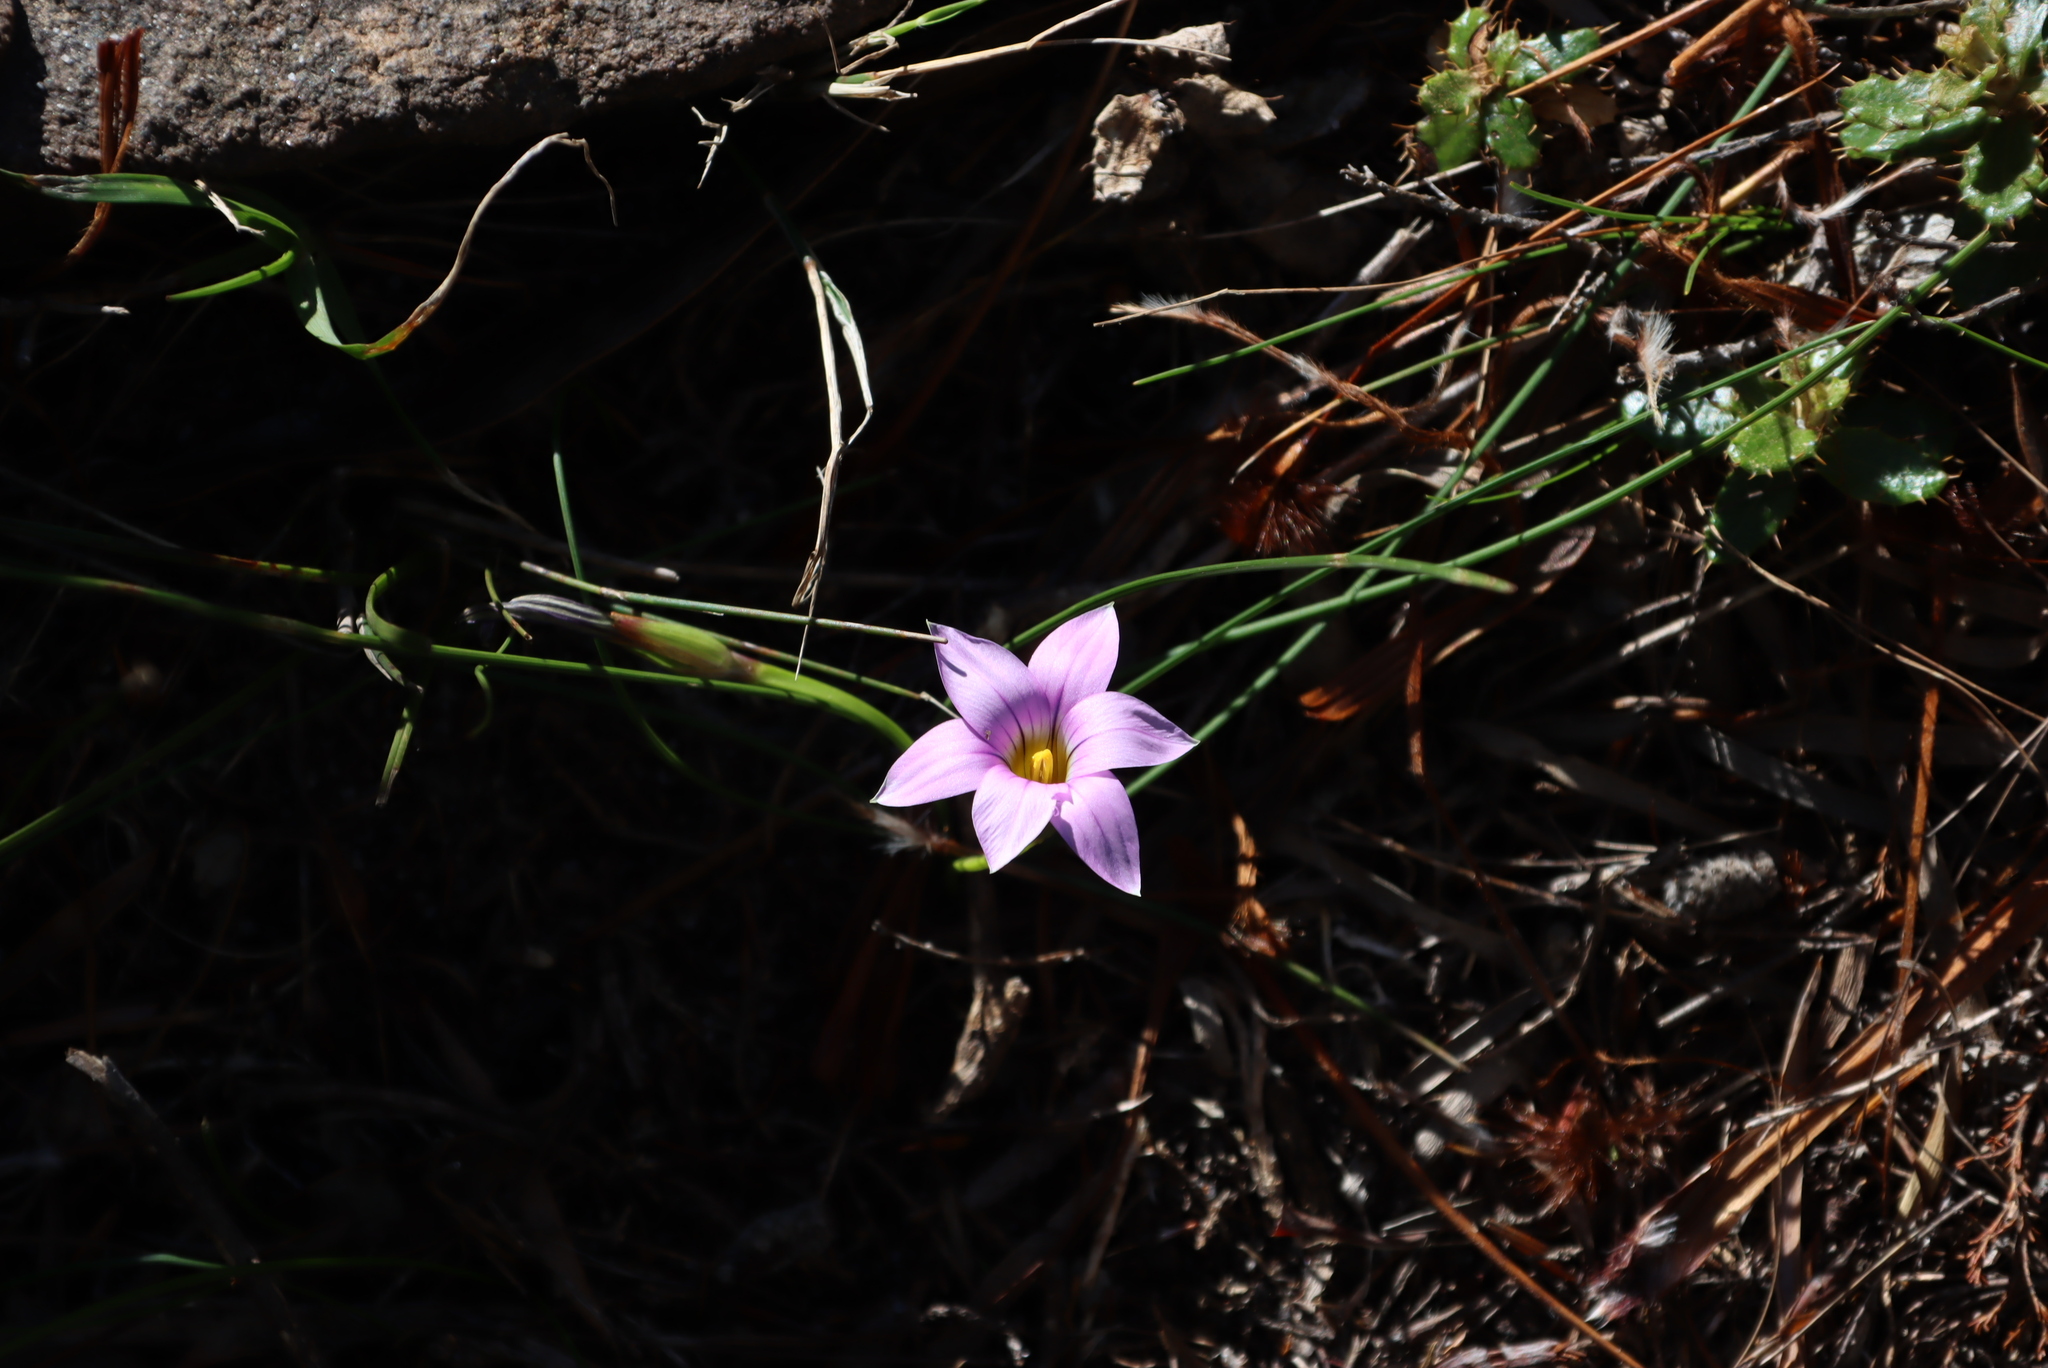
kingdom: Plantae
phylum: Tracheophyta
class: Liliopsida
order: Asparagales
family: Iridaceae
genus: Romulea
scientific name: Romulea rosea
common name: Oniongrass
